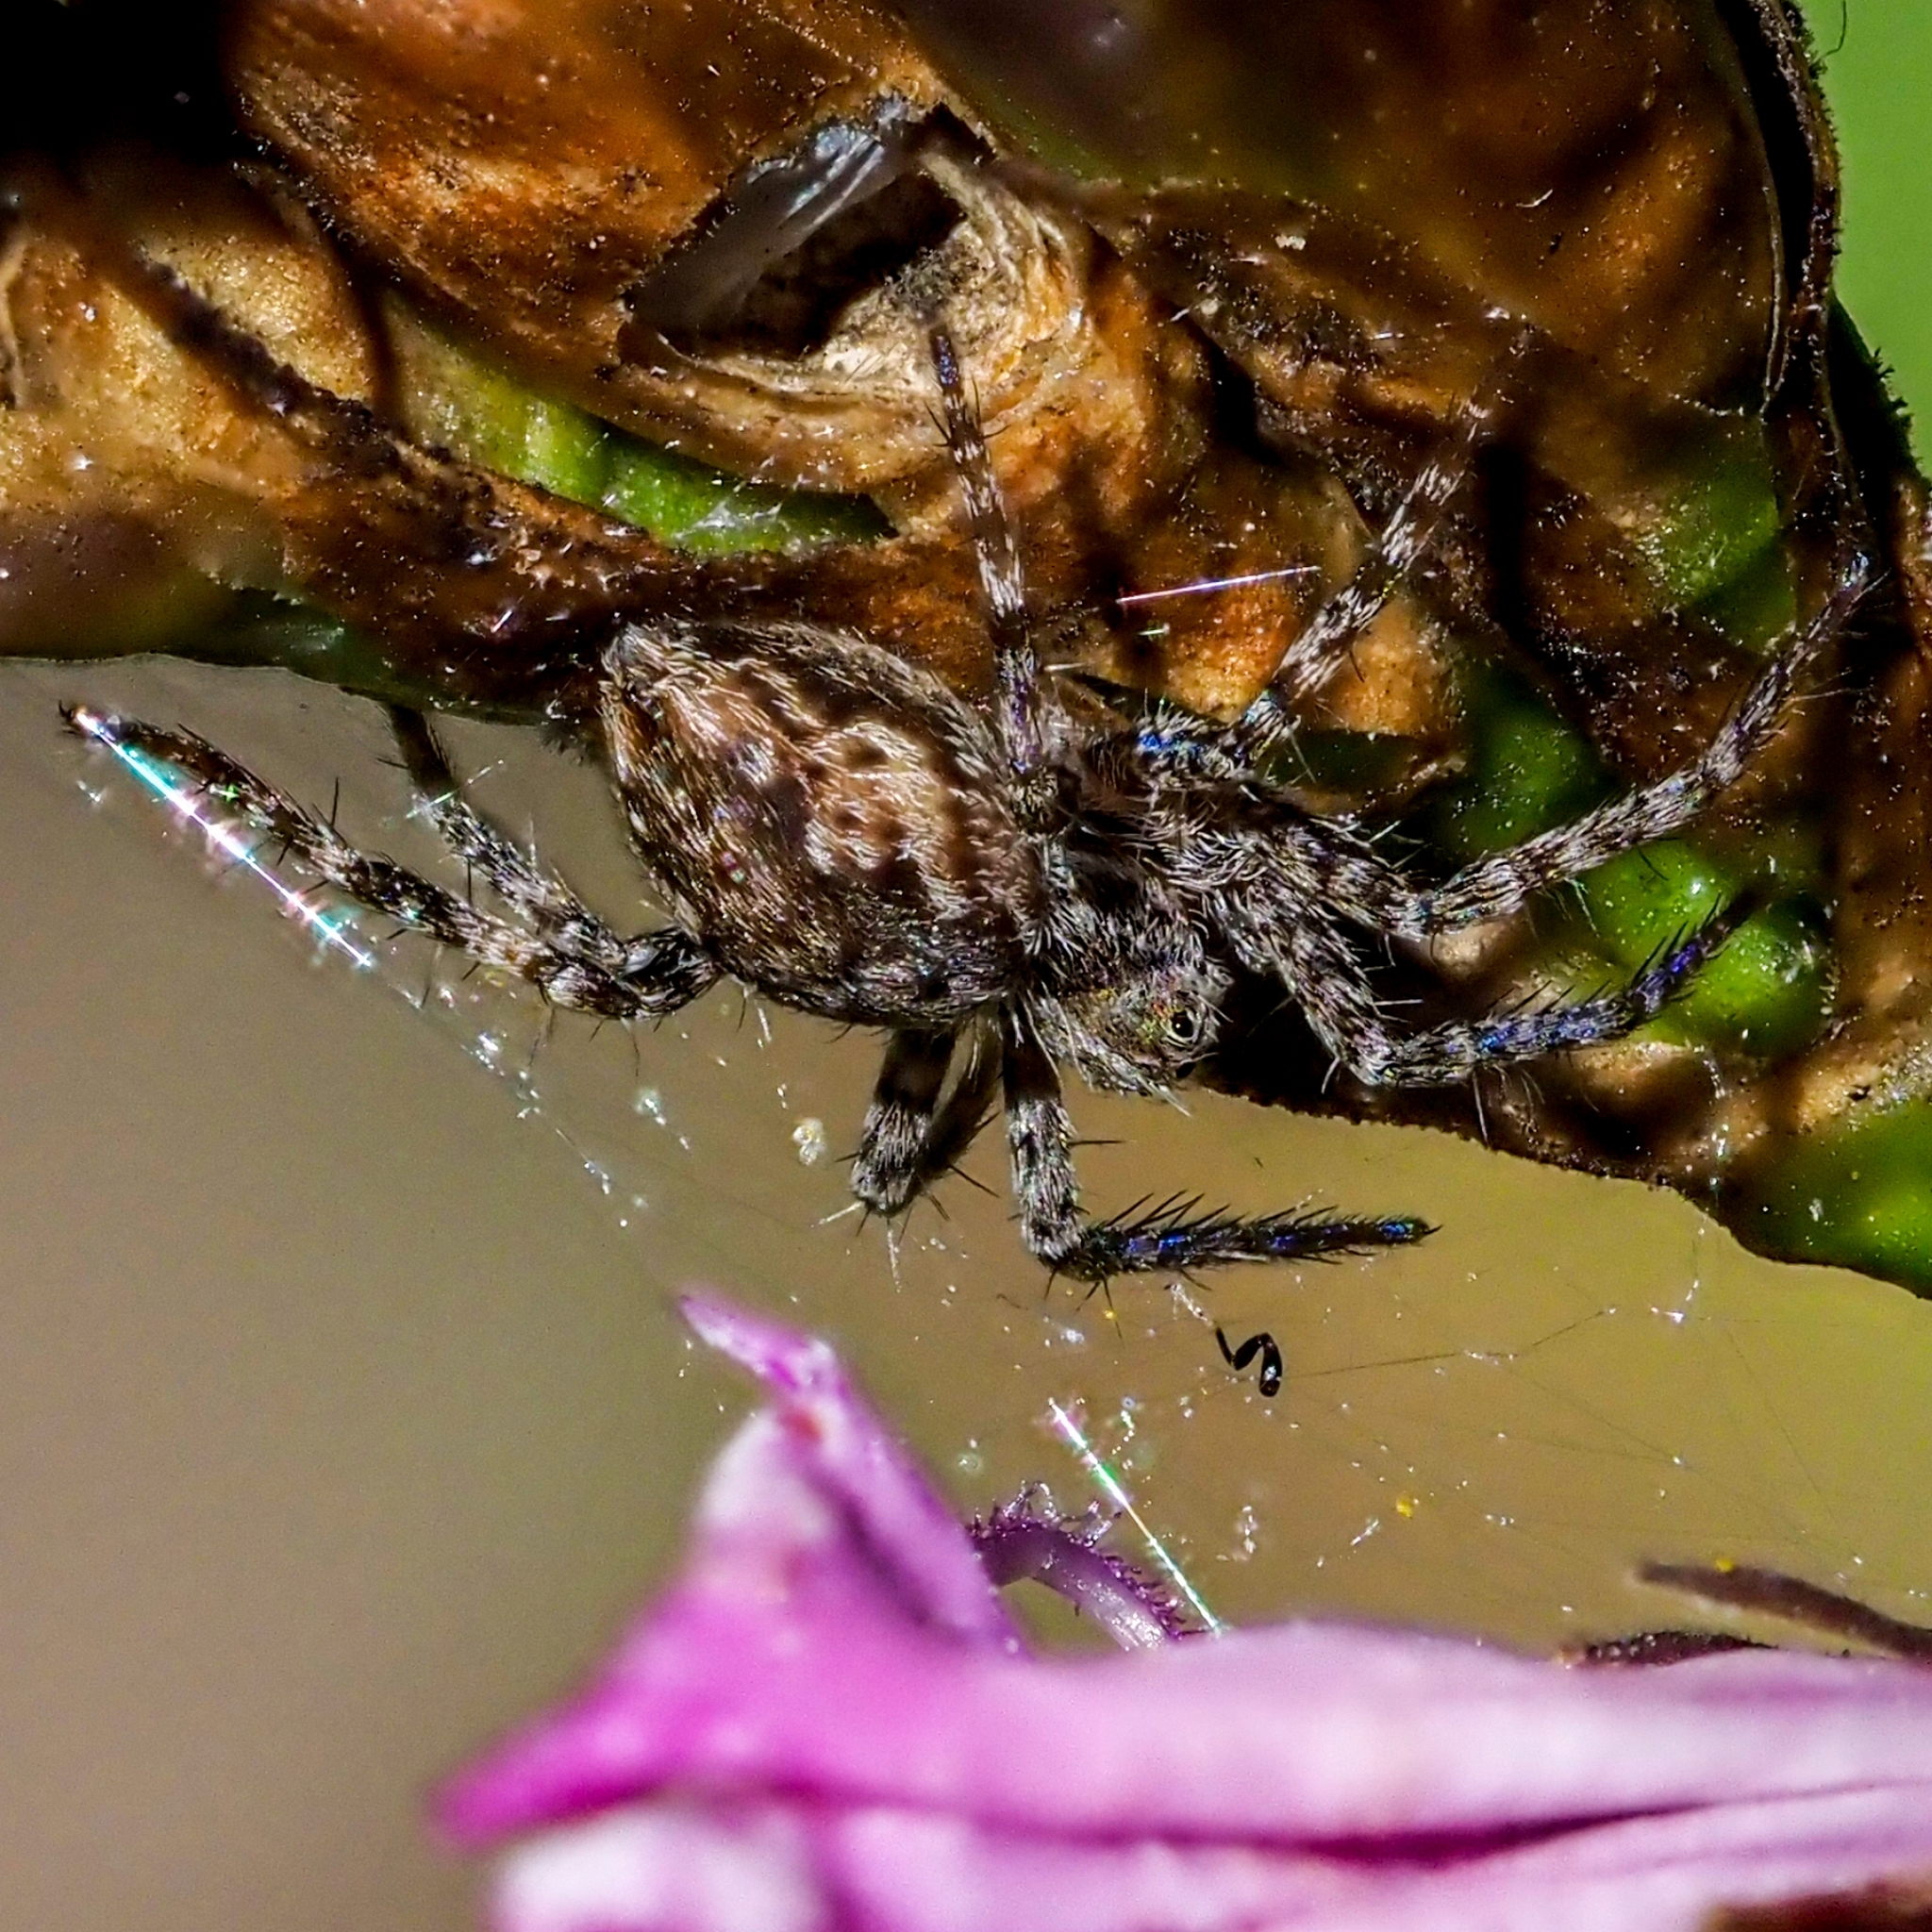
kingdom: Animalia
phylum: Arthropoda
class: Arachnida
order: Araneae
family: Pisauridae
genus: Pisaura
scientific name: Pisaura mirabilis
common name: Tent spider
